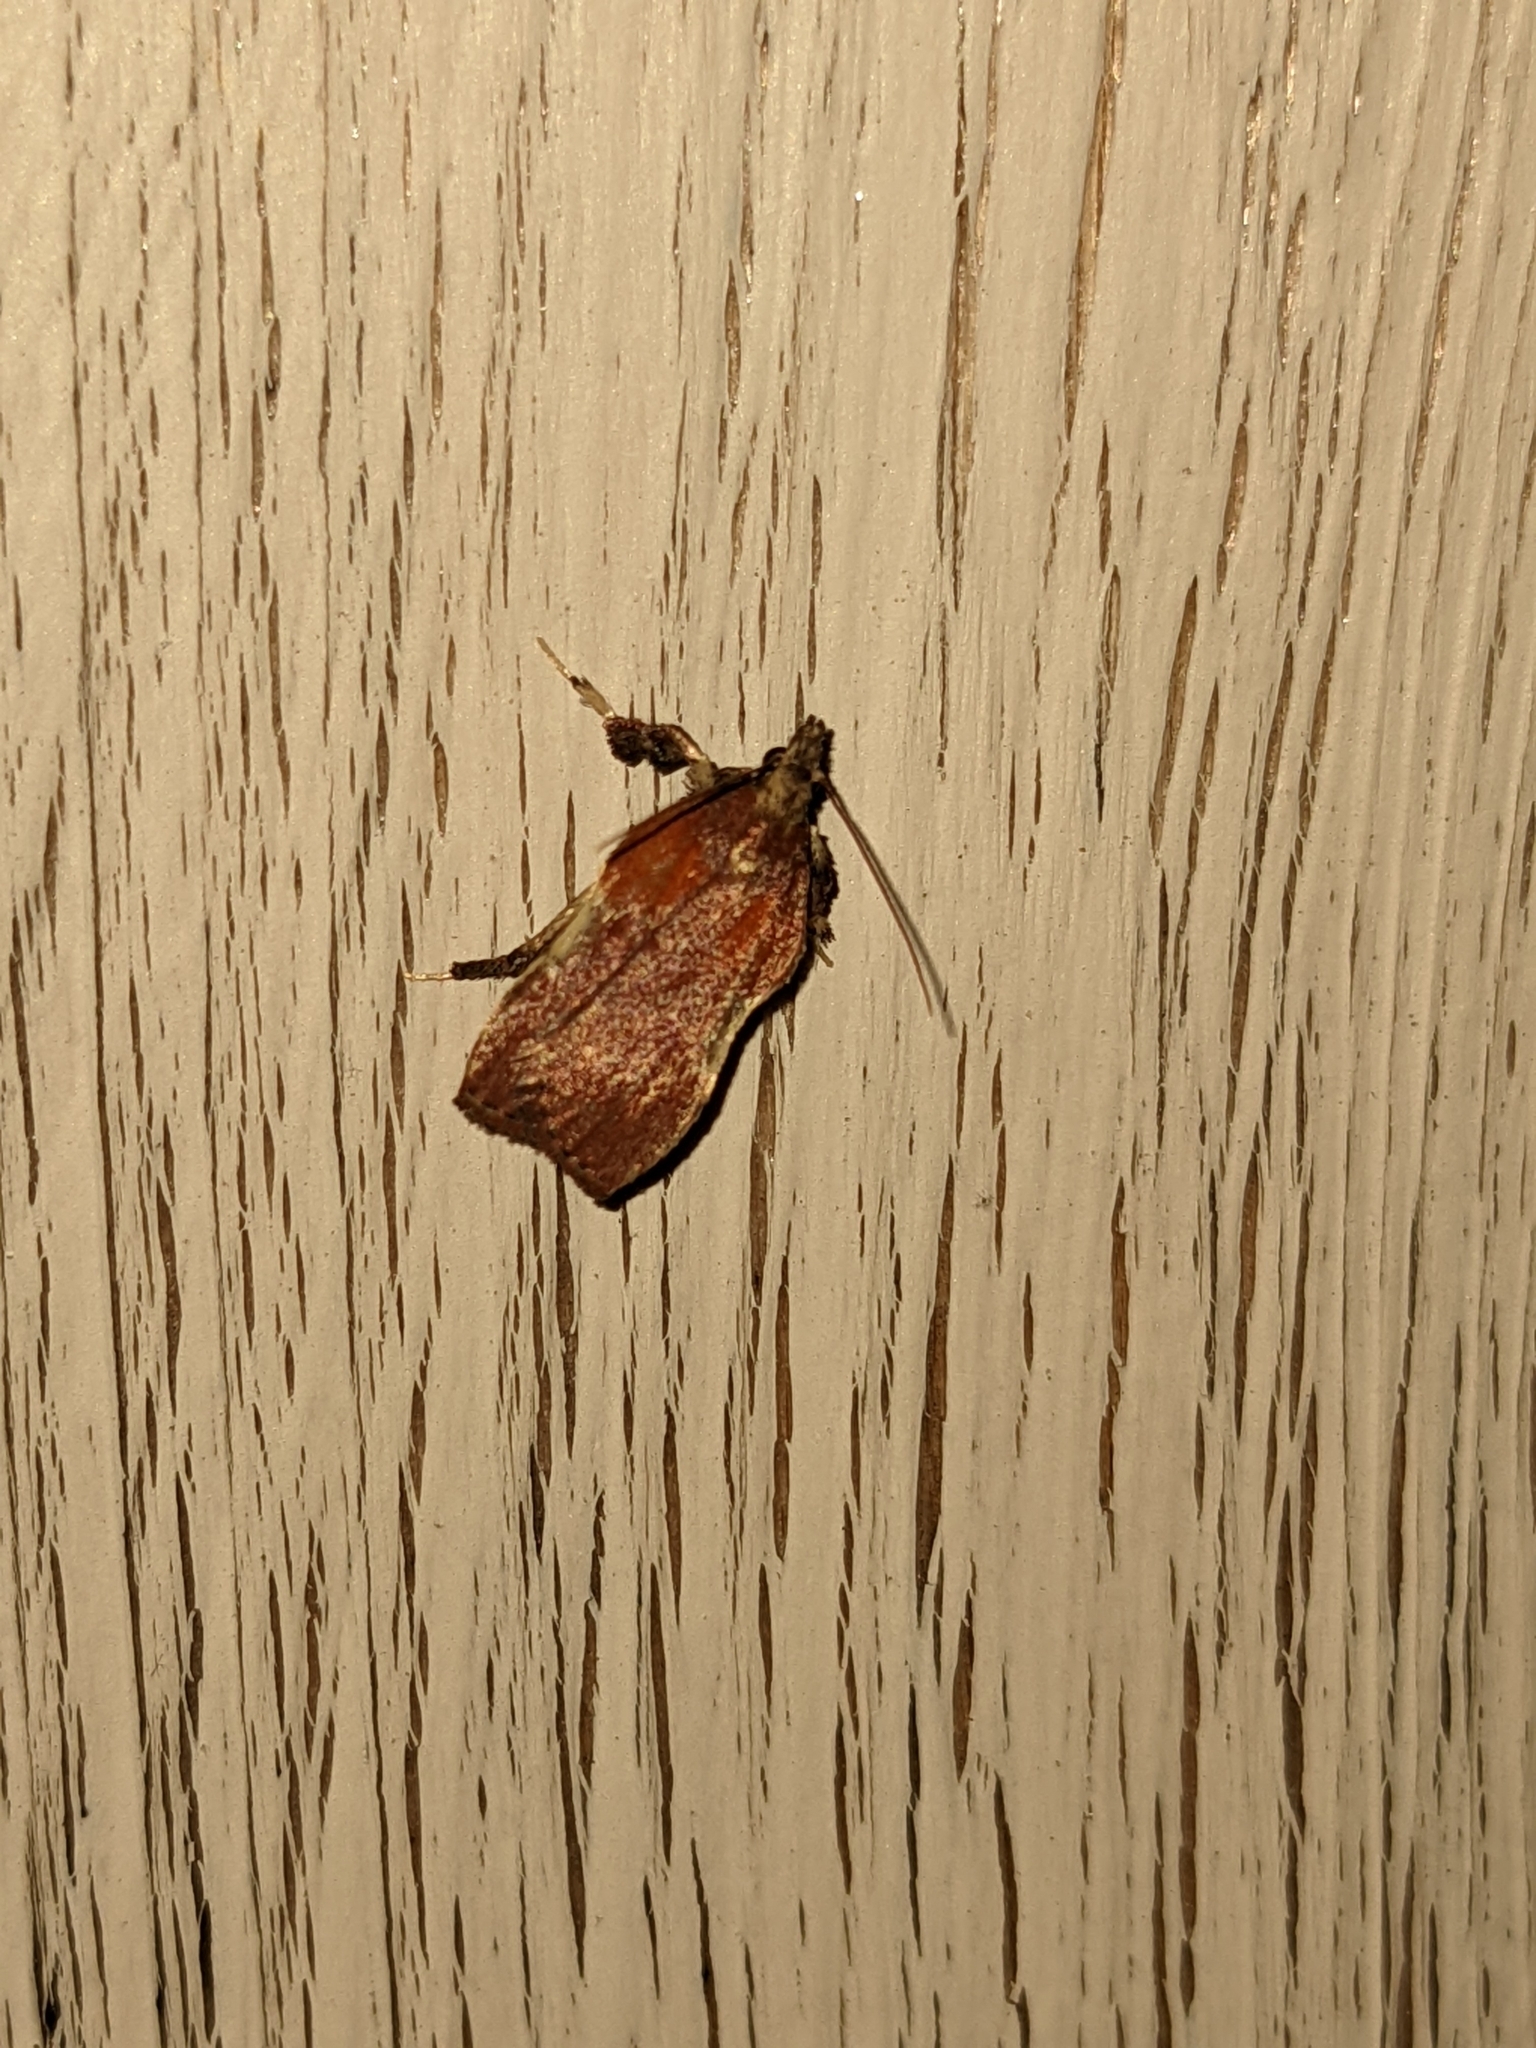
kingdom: Animalia
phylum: Arthropoda
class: Insecta
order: Lepidoptera
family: Pyralidae
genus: Galasa
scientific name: Galasa nigrinodis
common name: Boxwood leaftier moth
